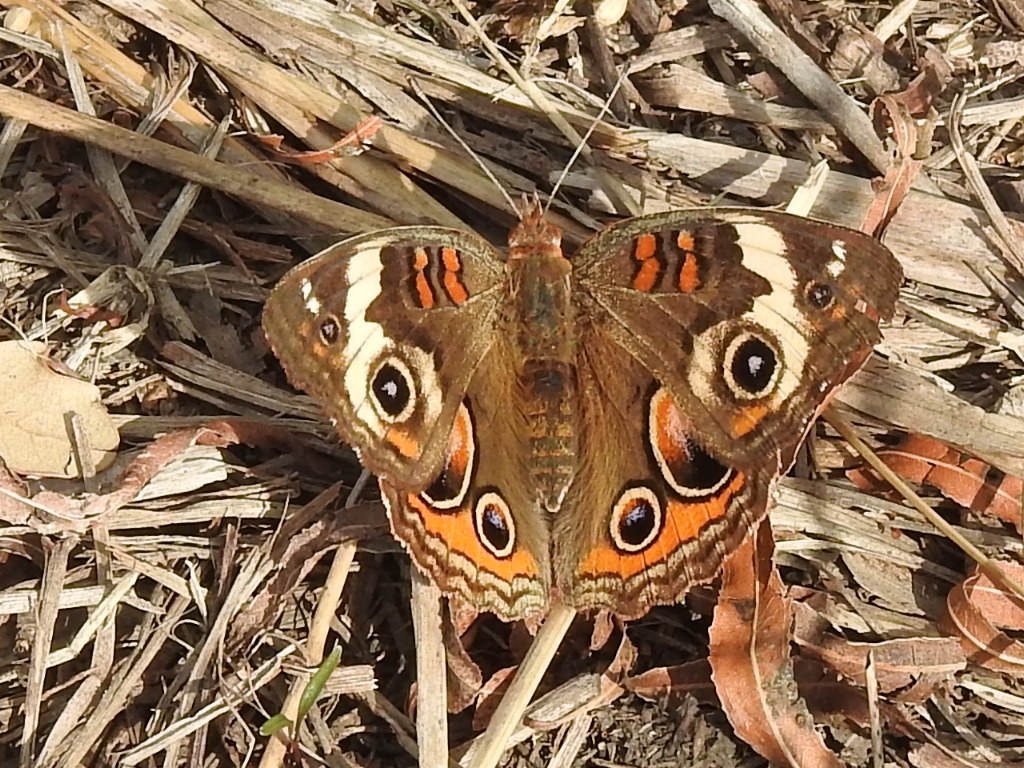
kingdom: Animalia
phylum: Arthropoda
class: Insecta
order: Lepidoptera
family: Nymphalidae
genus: Junonia
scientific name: Junonia coenia
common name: Common buckeye
